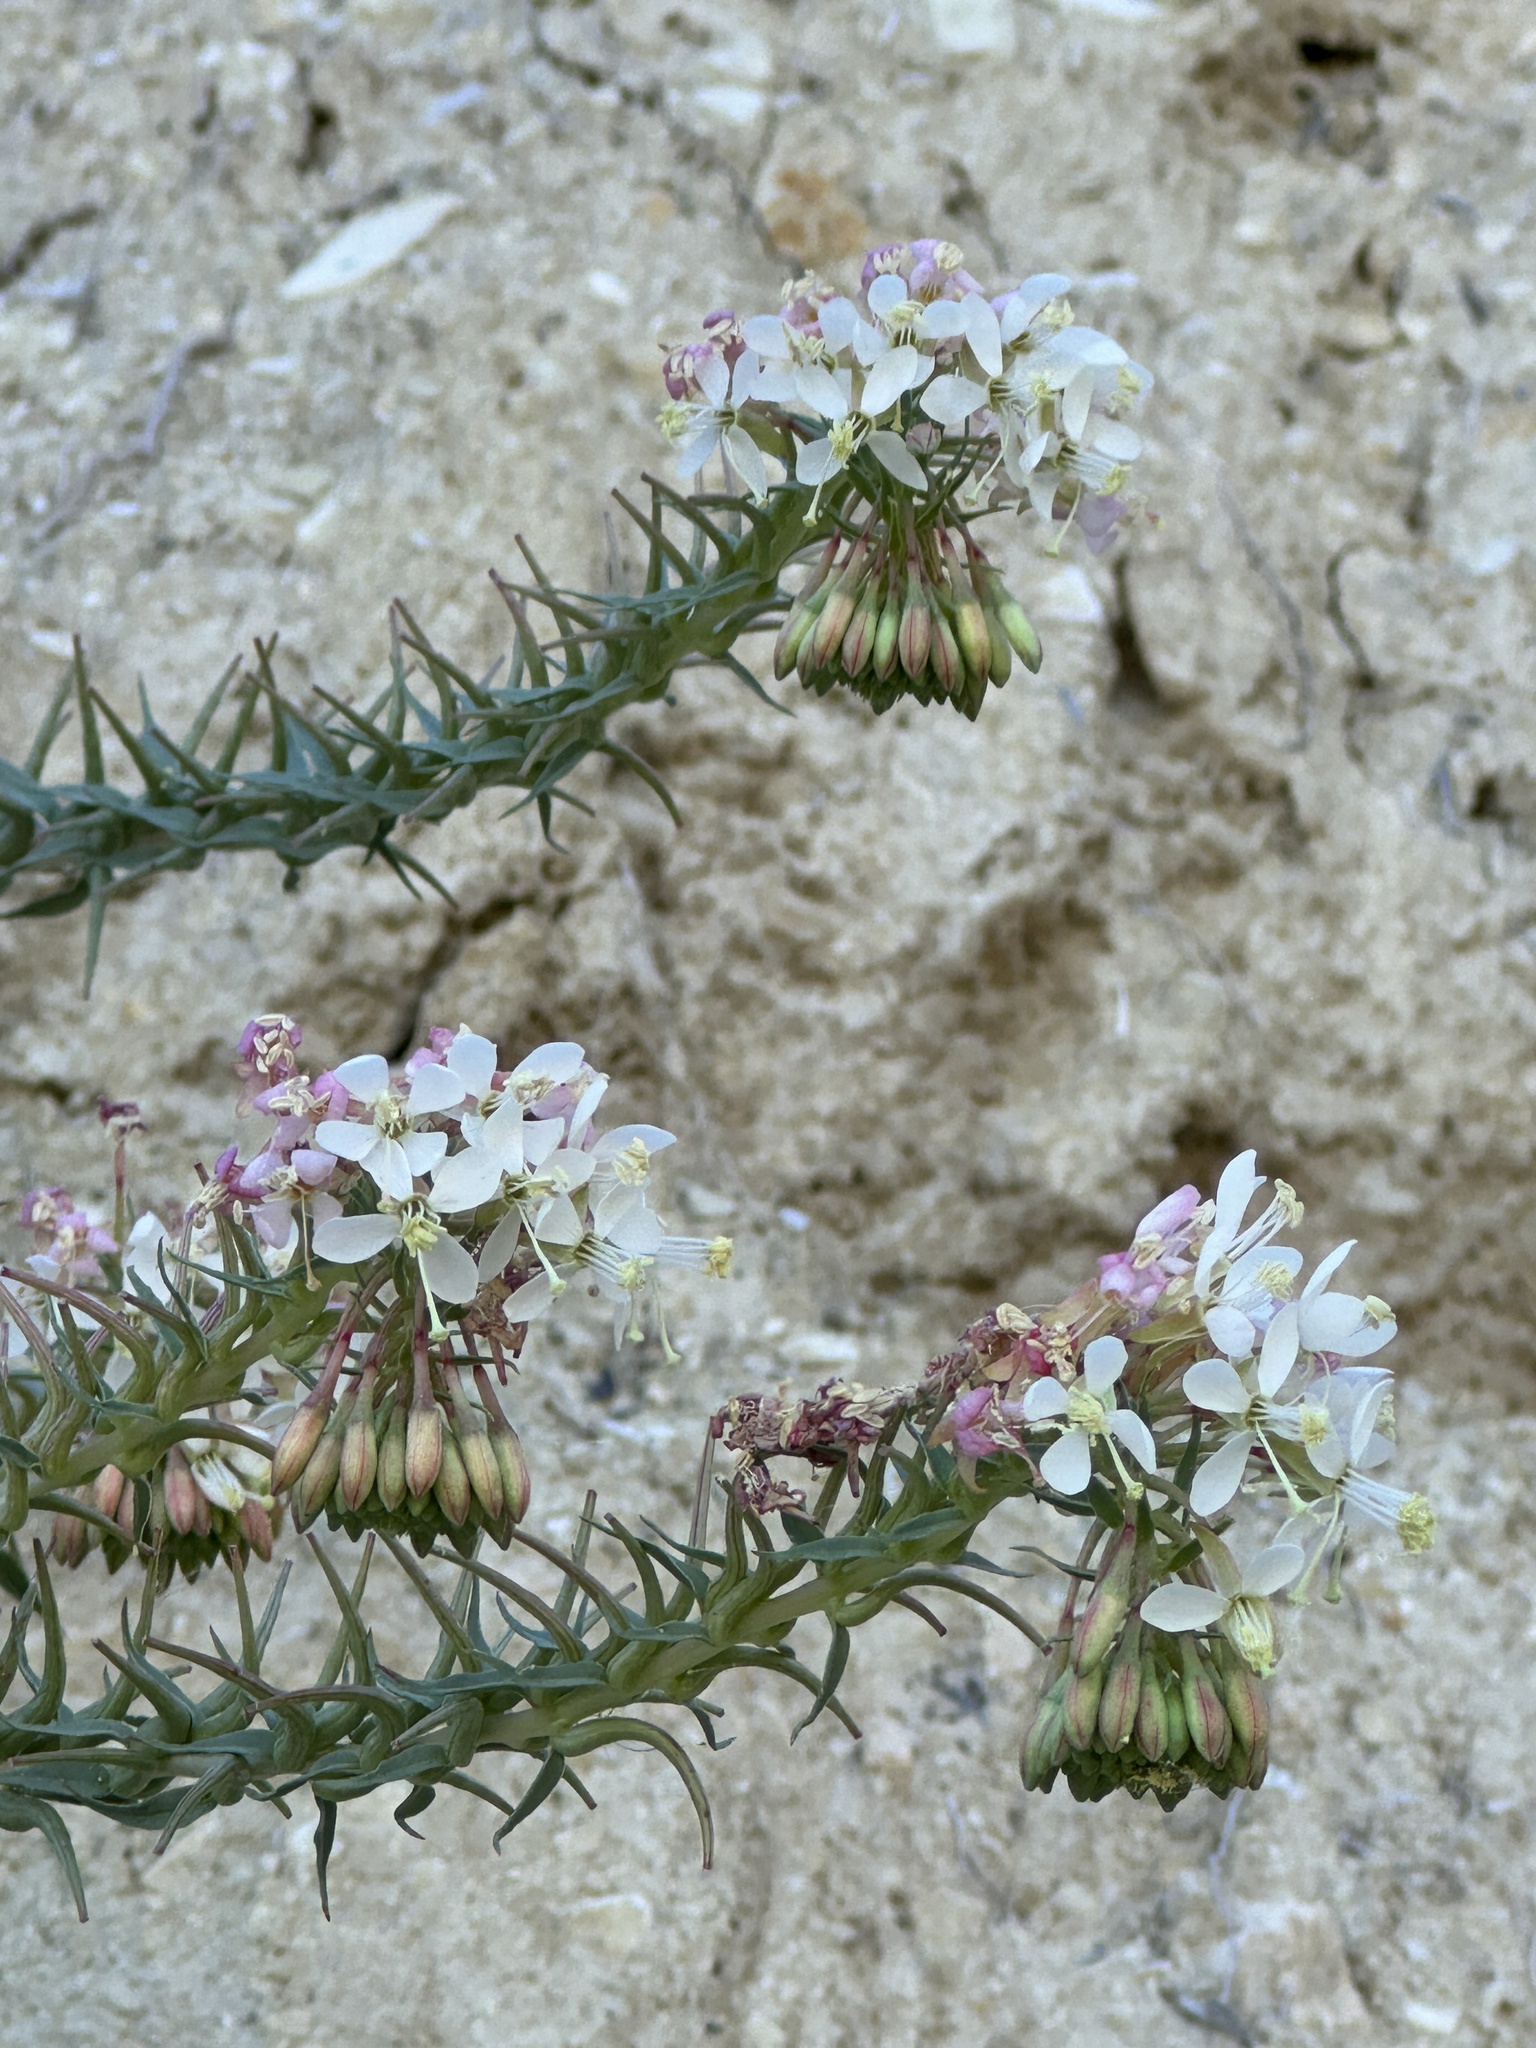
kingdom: Plantae
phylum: Tracheophyta
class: Magnoliopsida
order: Myrtales
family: Onagraceae
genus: Eremothera
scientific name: Eremothera boothii
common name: Booth's evening primrose
